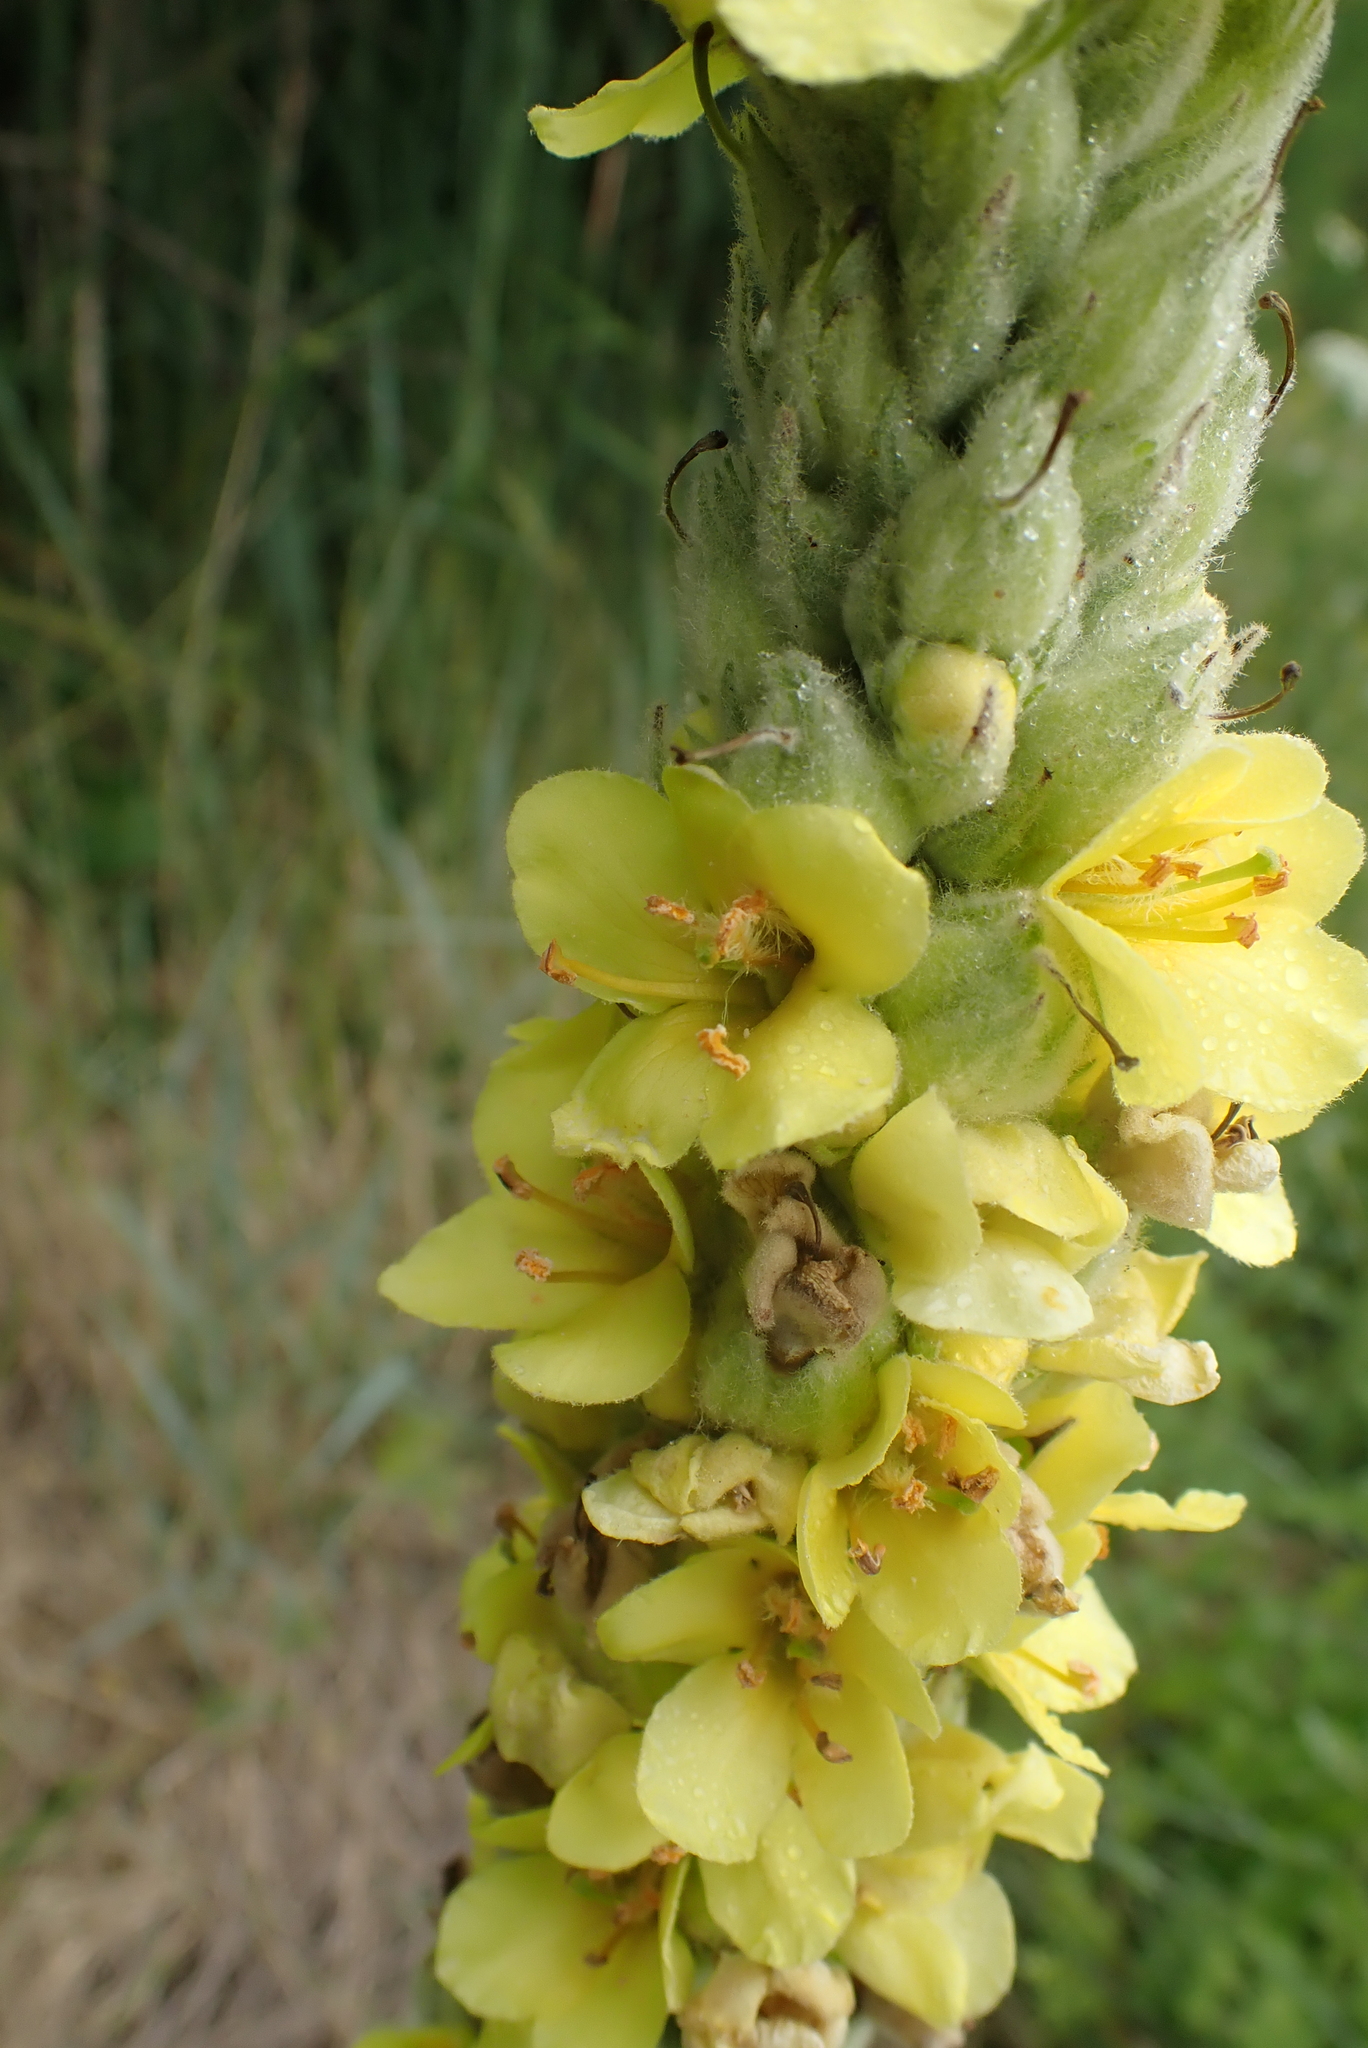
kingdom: Plantae
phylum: Tracheophyta
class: Magnoliopsida
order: Lamiales
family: Scrophulariaceae
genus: Verbascum
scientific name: Verbascum thapsus
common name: Common mullein
